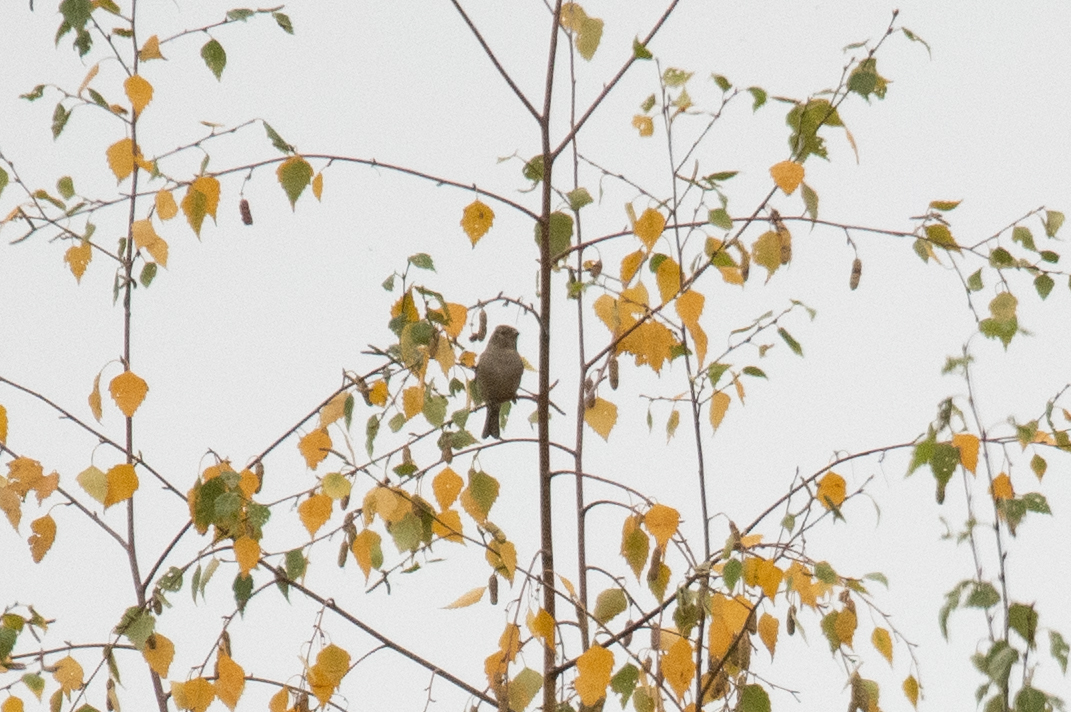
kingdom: Animalia
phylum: Chordata
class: Aves
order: Passeriformes
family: Fringillidae
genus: Fringilla
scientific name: Fringilla coelebs
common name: Common chaffinch
